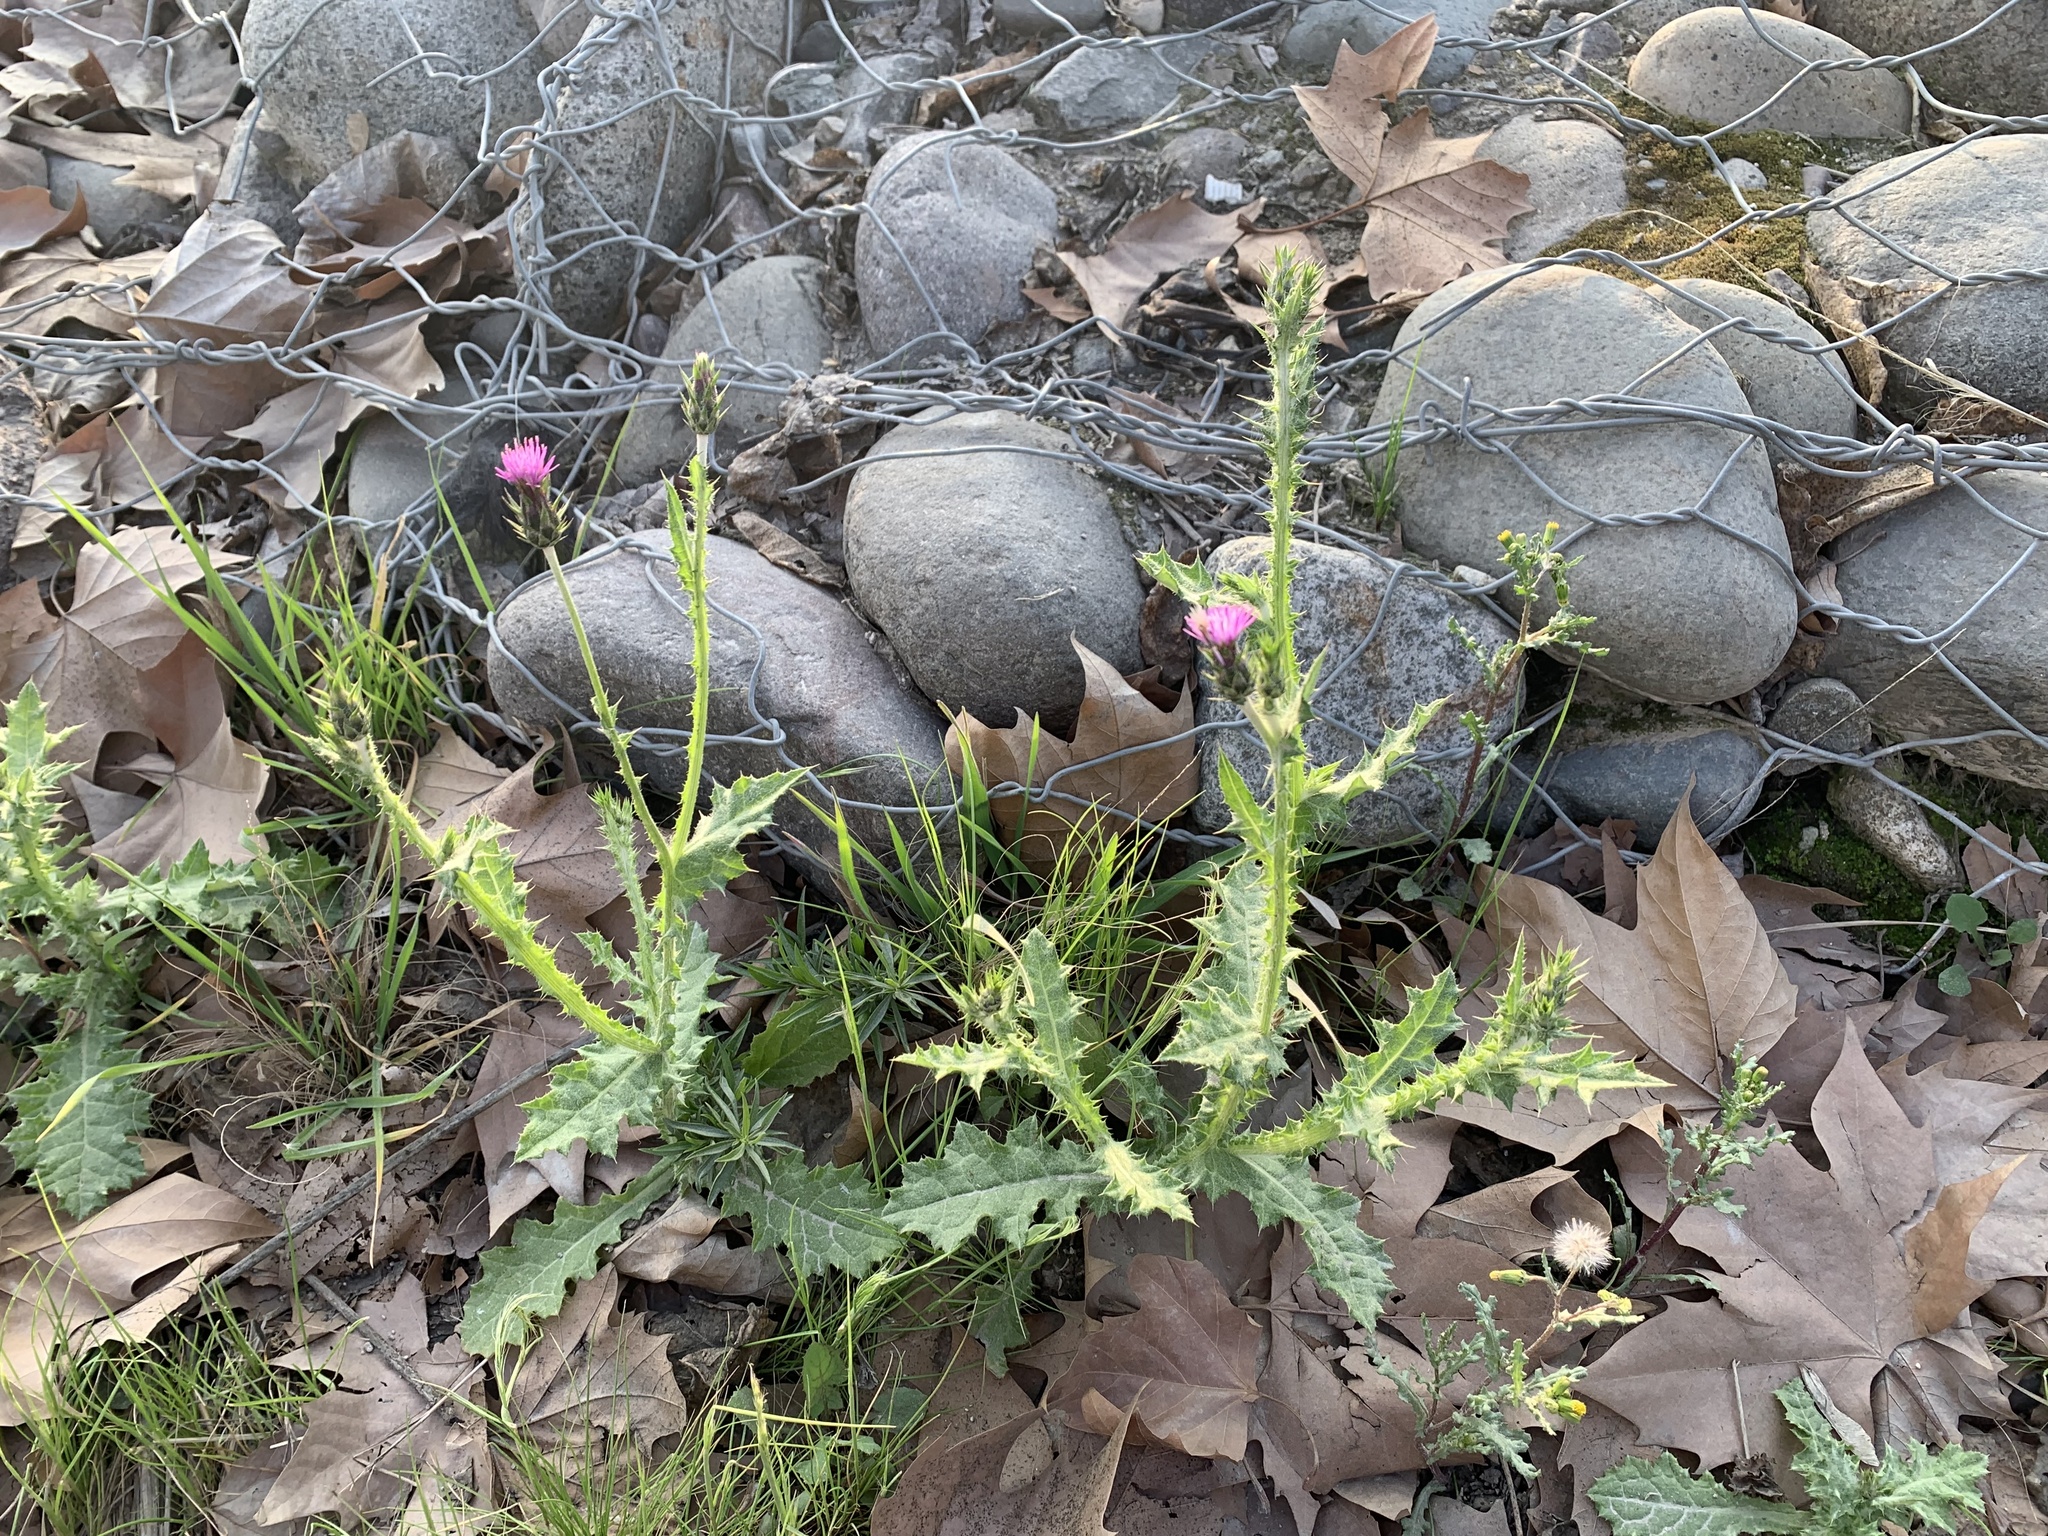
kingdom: Plantae
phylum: Tracheophyta
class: Magnoliopsida
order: Asterales
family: Asteraceae
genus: Carduus
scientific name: Carduus pycnocephalus
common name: Plymouth thistle
